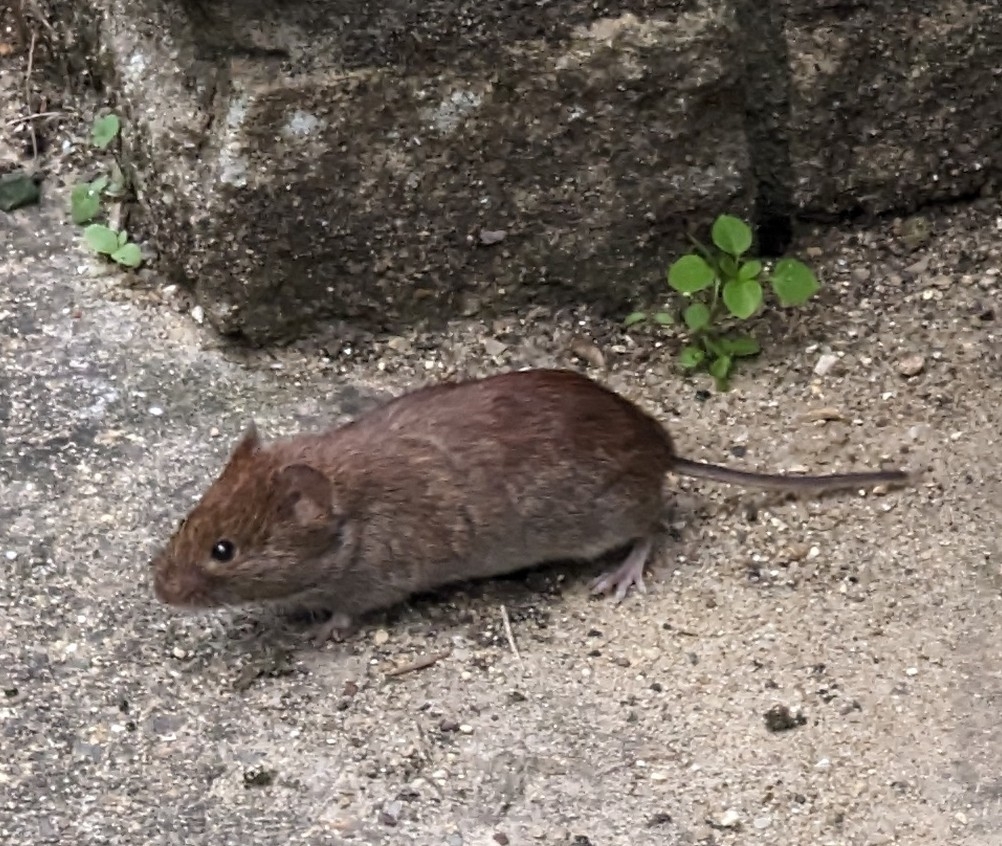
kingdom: Animalia
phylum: Chordata
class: Mammalia
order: Rodentia
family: Cricetidae
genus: Myodes
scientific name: Myodes glareolus
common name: Bank vole
